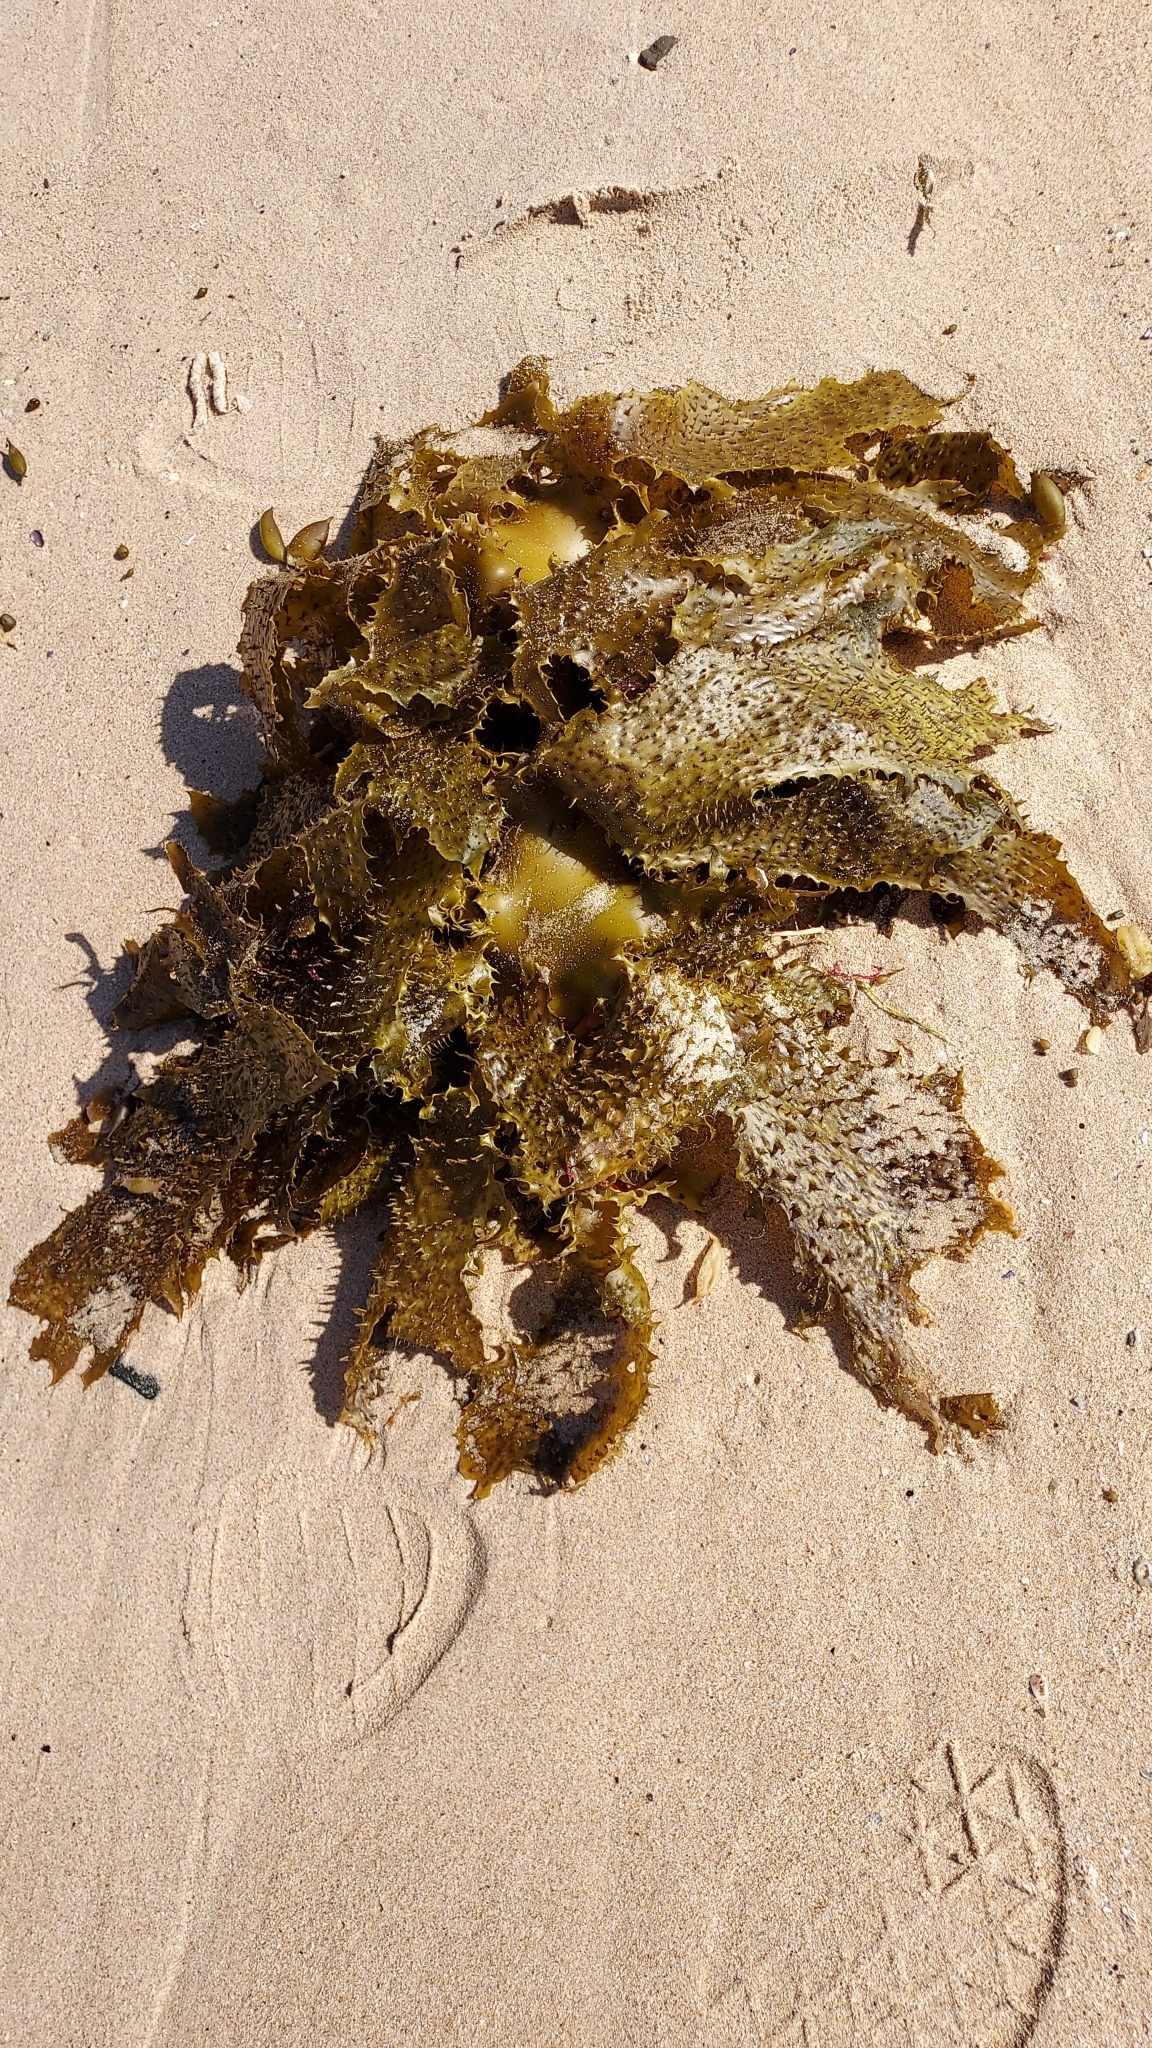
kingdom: Chromista
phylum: Ochrophyta
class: Phaeophyceae
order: Laminariales
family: Lessoniaceae
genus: Ecklonia
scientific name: Ecklonia radiata
